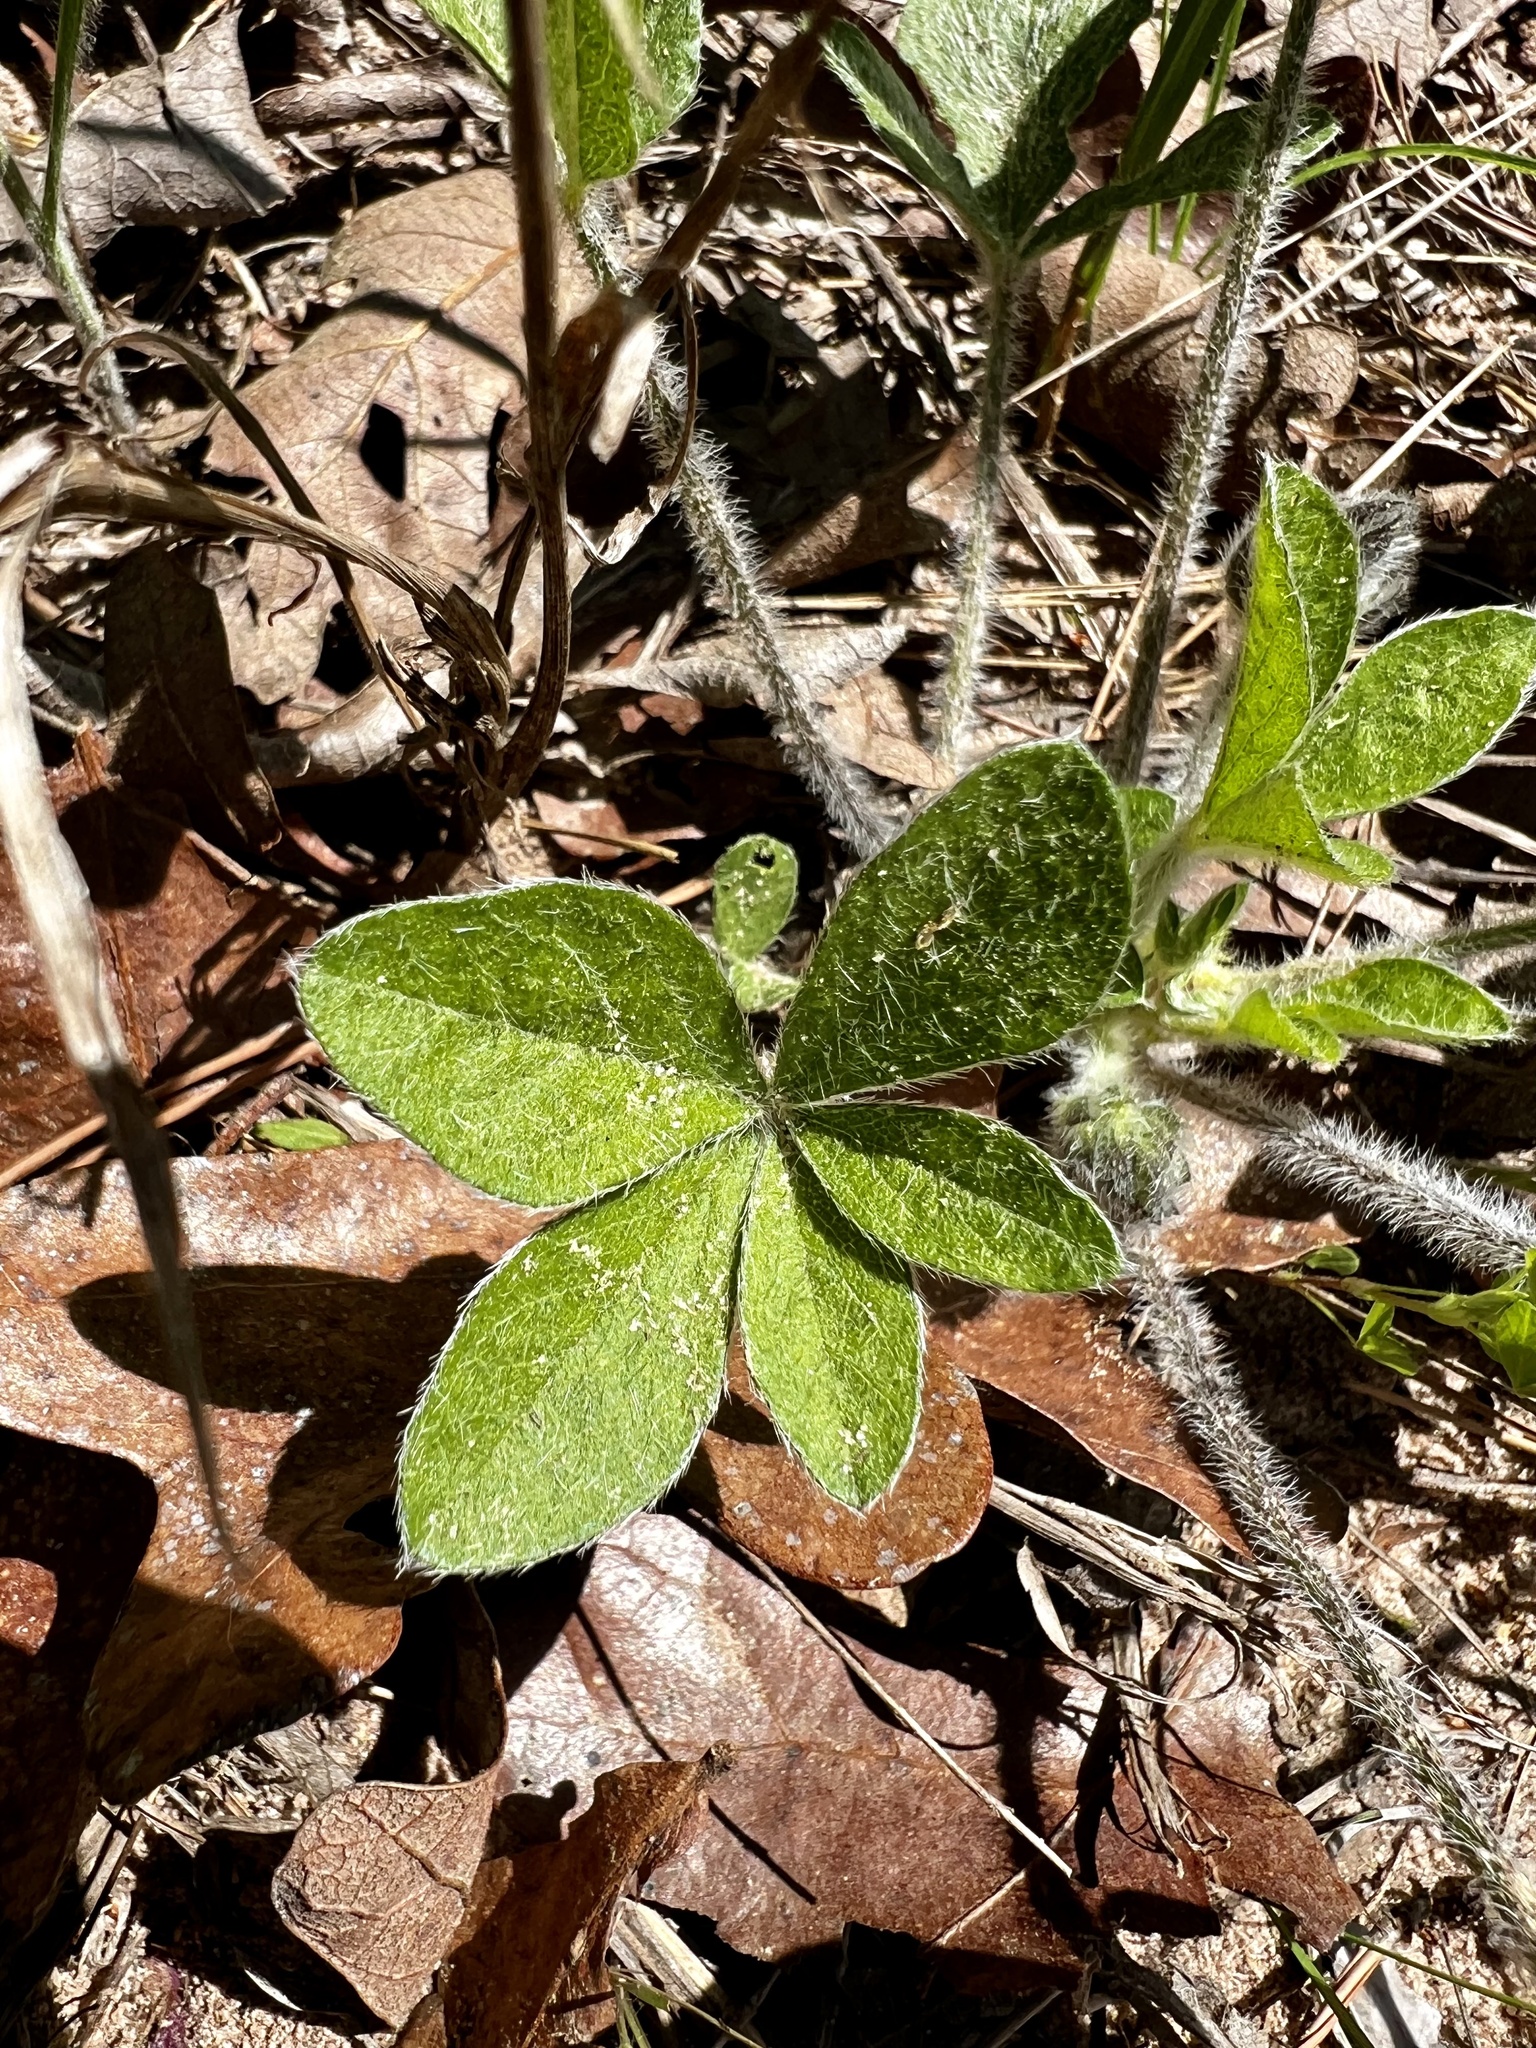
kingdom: Plantae
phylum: Tracheophyta
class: Magnoliopsida
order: Fabales
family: Fabaceae
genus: Pediomelum
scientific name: Pediomelum hypogaeum
